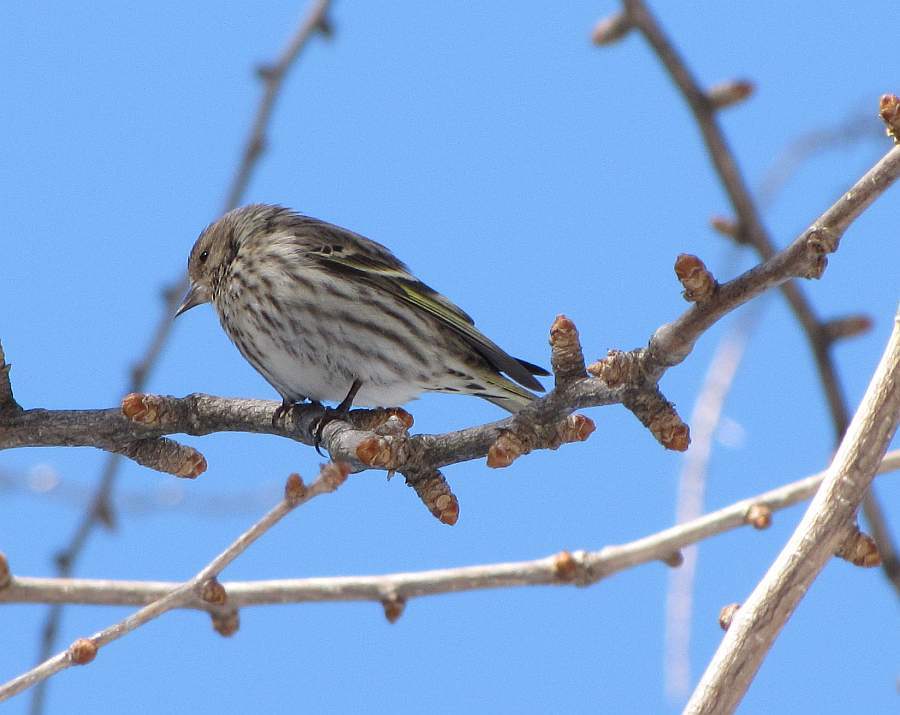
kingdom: Animalia
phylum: Chordata
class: Aves
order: Passeriformes
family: Fringillidae
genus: Spinus
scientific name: Spinus pinus
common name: Pine siskin
